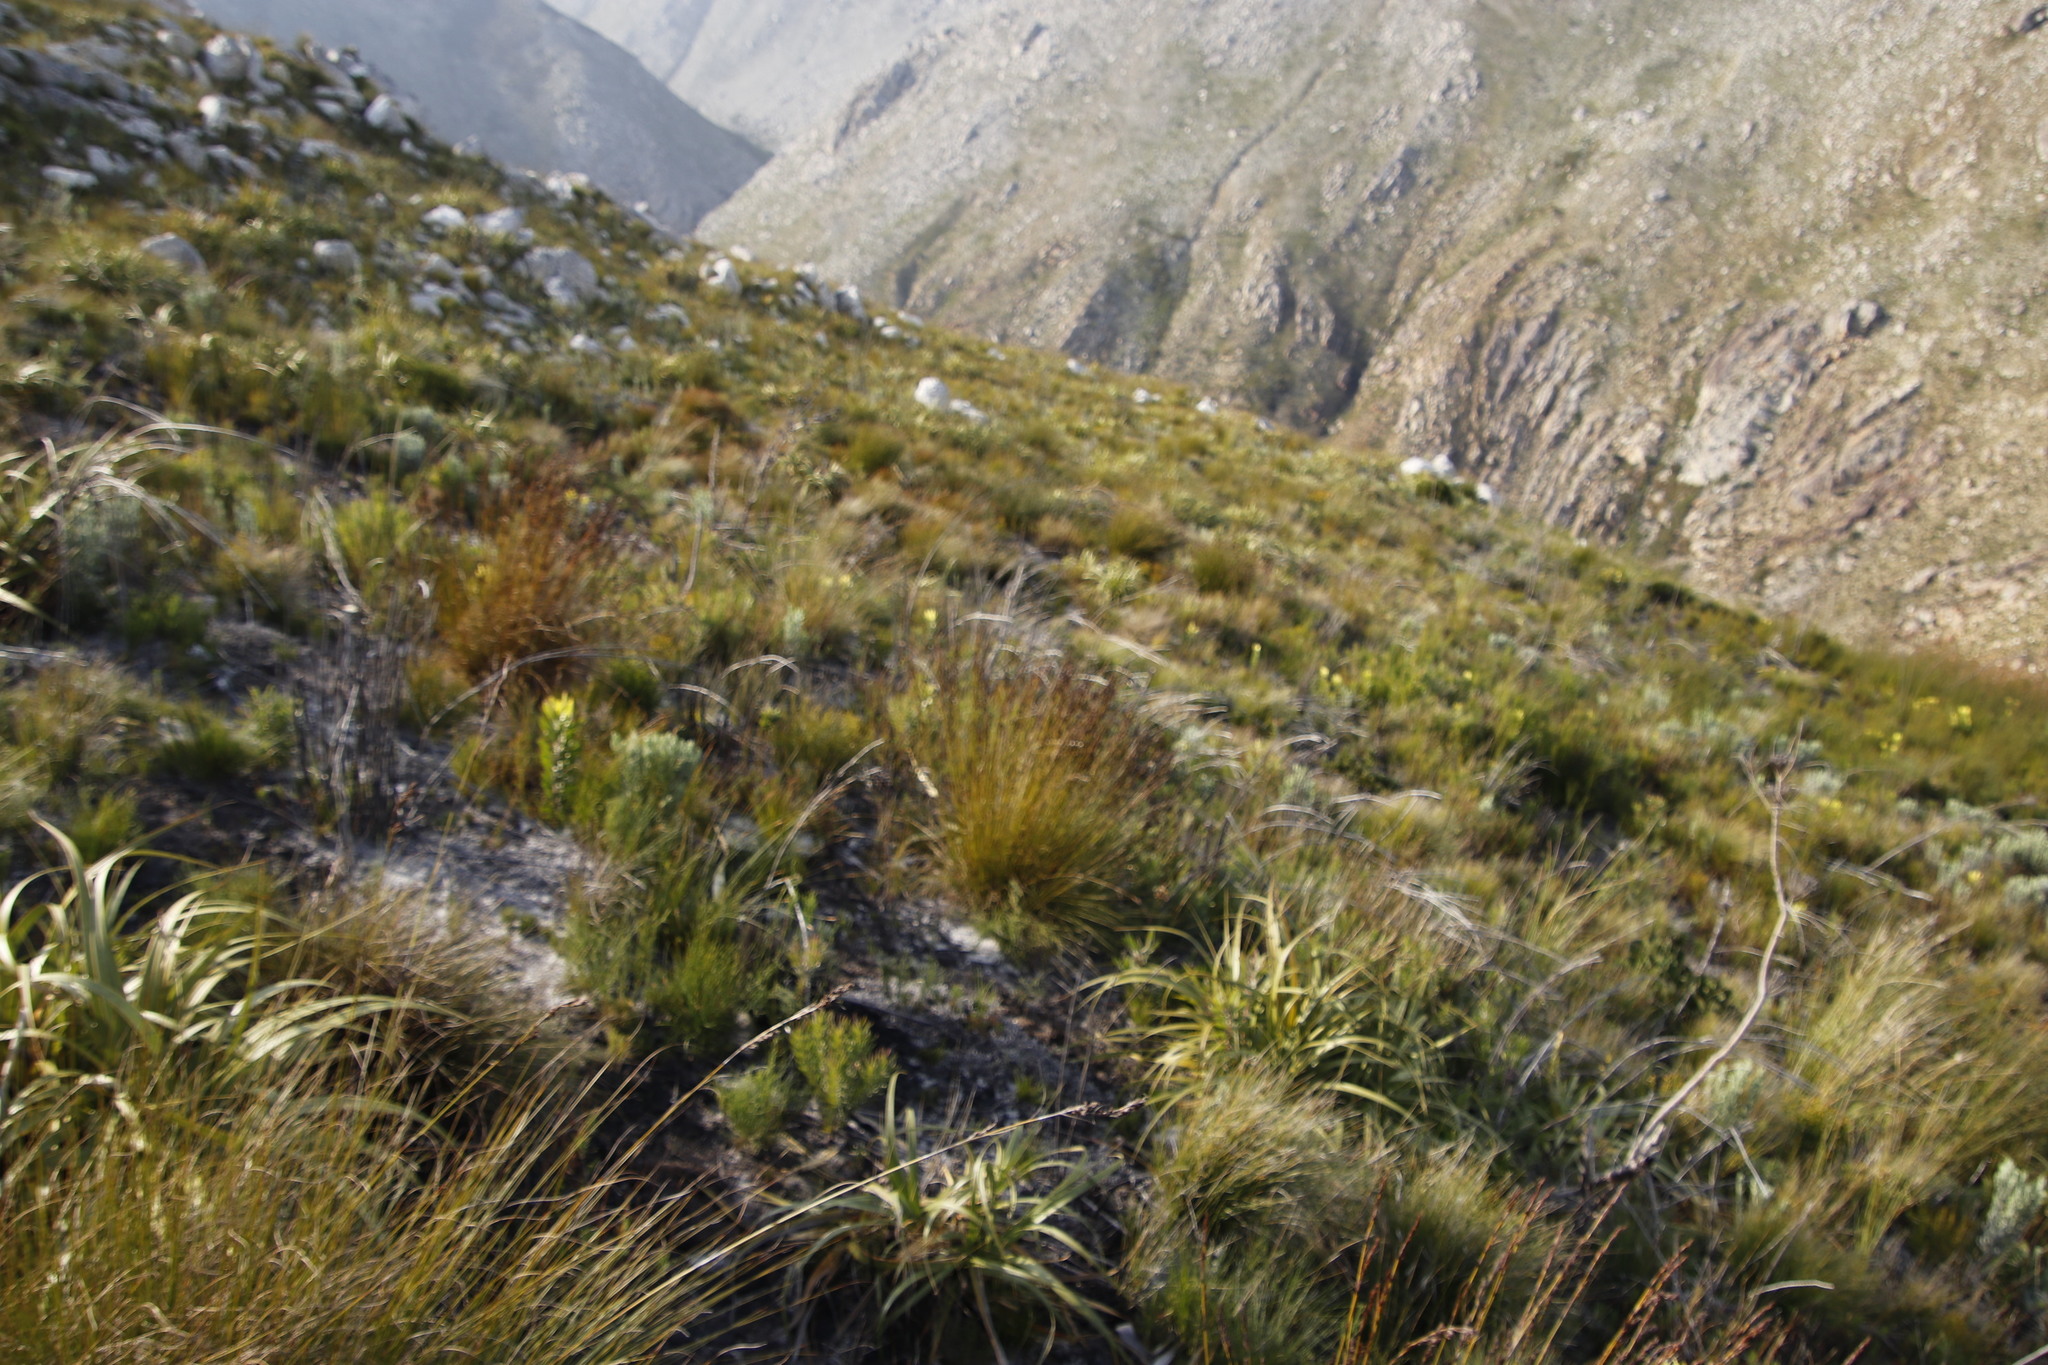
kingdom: Plantae
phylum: Tracheophyta
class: Magnoliopsida
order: Proteales
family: Proteaceae
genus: Leucadendron
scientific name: Leucadendron microcephalum
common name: Oilbract conebush
